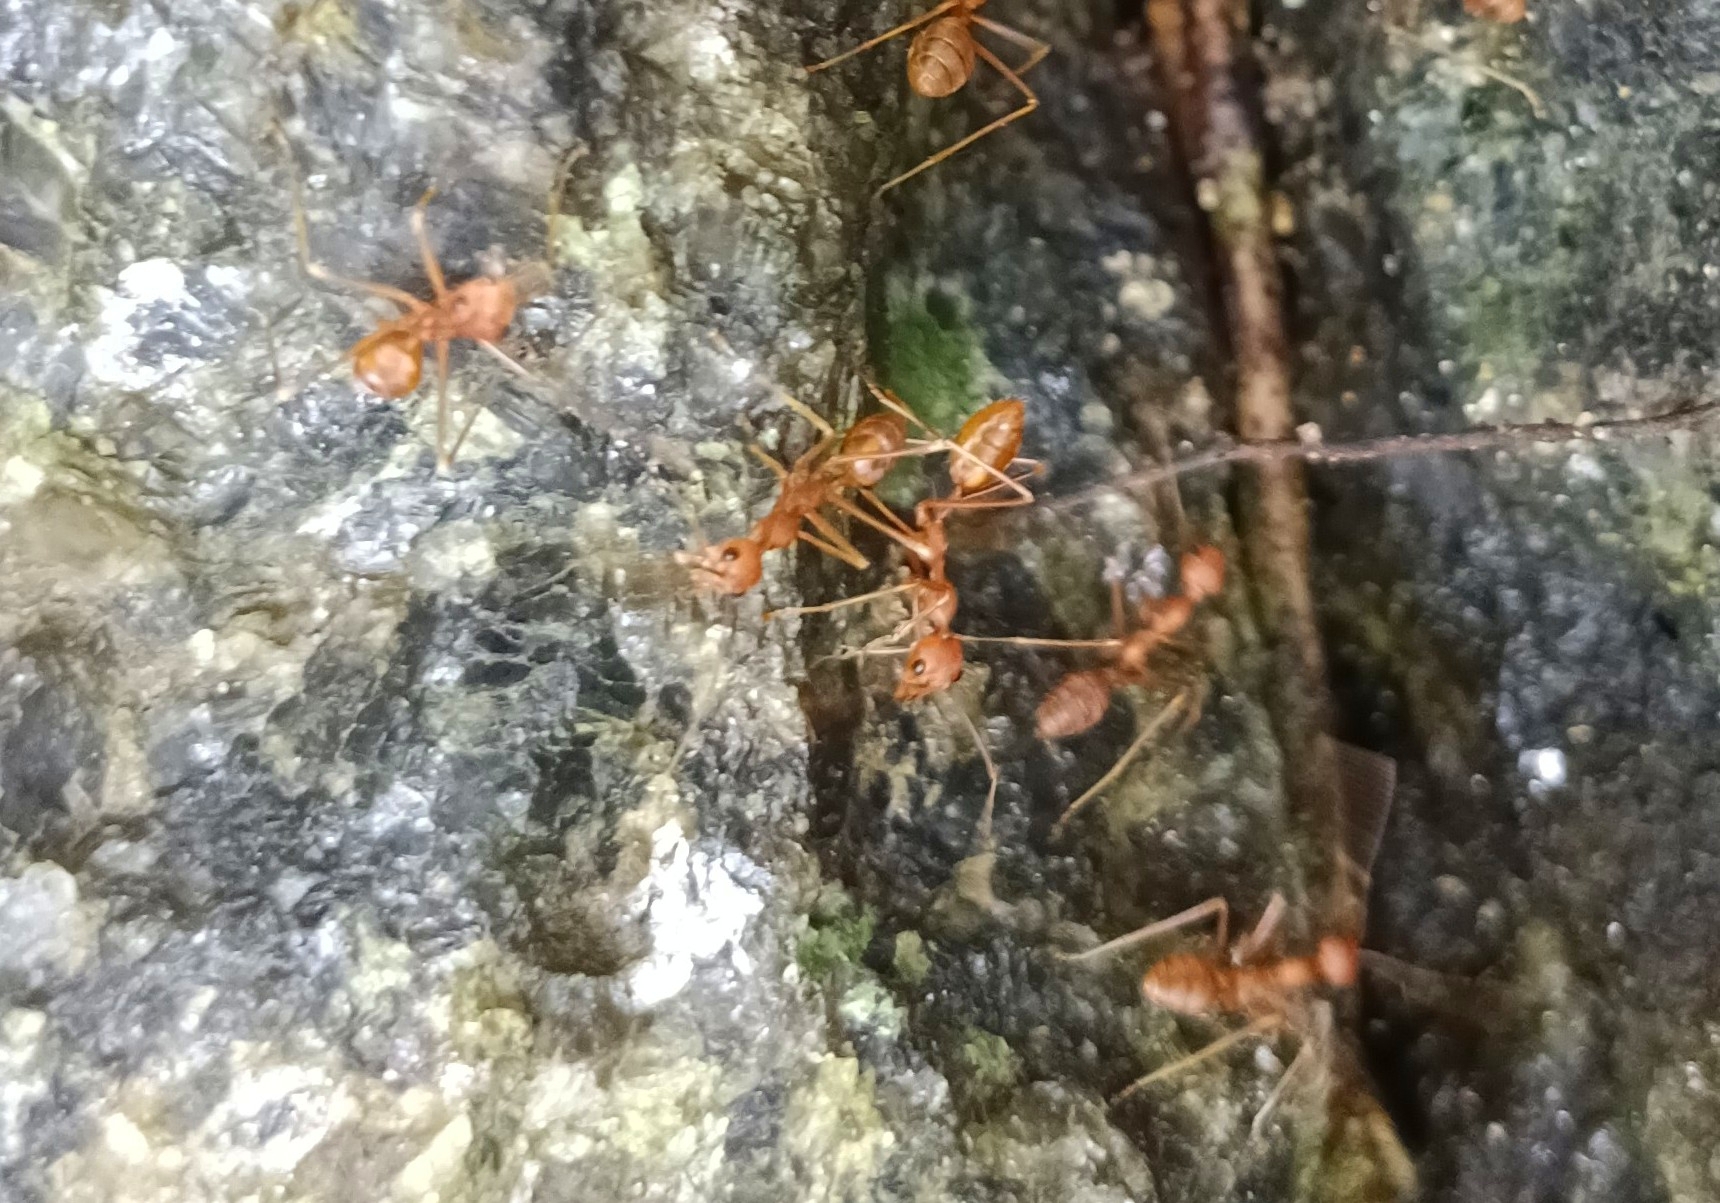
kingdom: Animalia
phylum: Arthropoda
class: Insecta
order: Hymenoptera
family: Formicidae
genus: Oecophylla
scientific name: Oecophylla smaragdina
